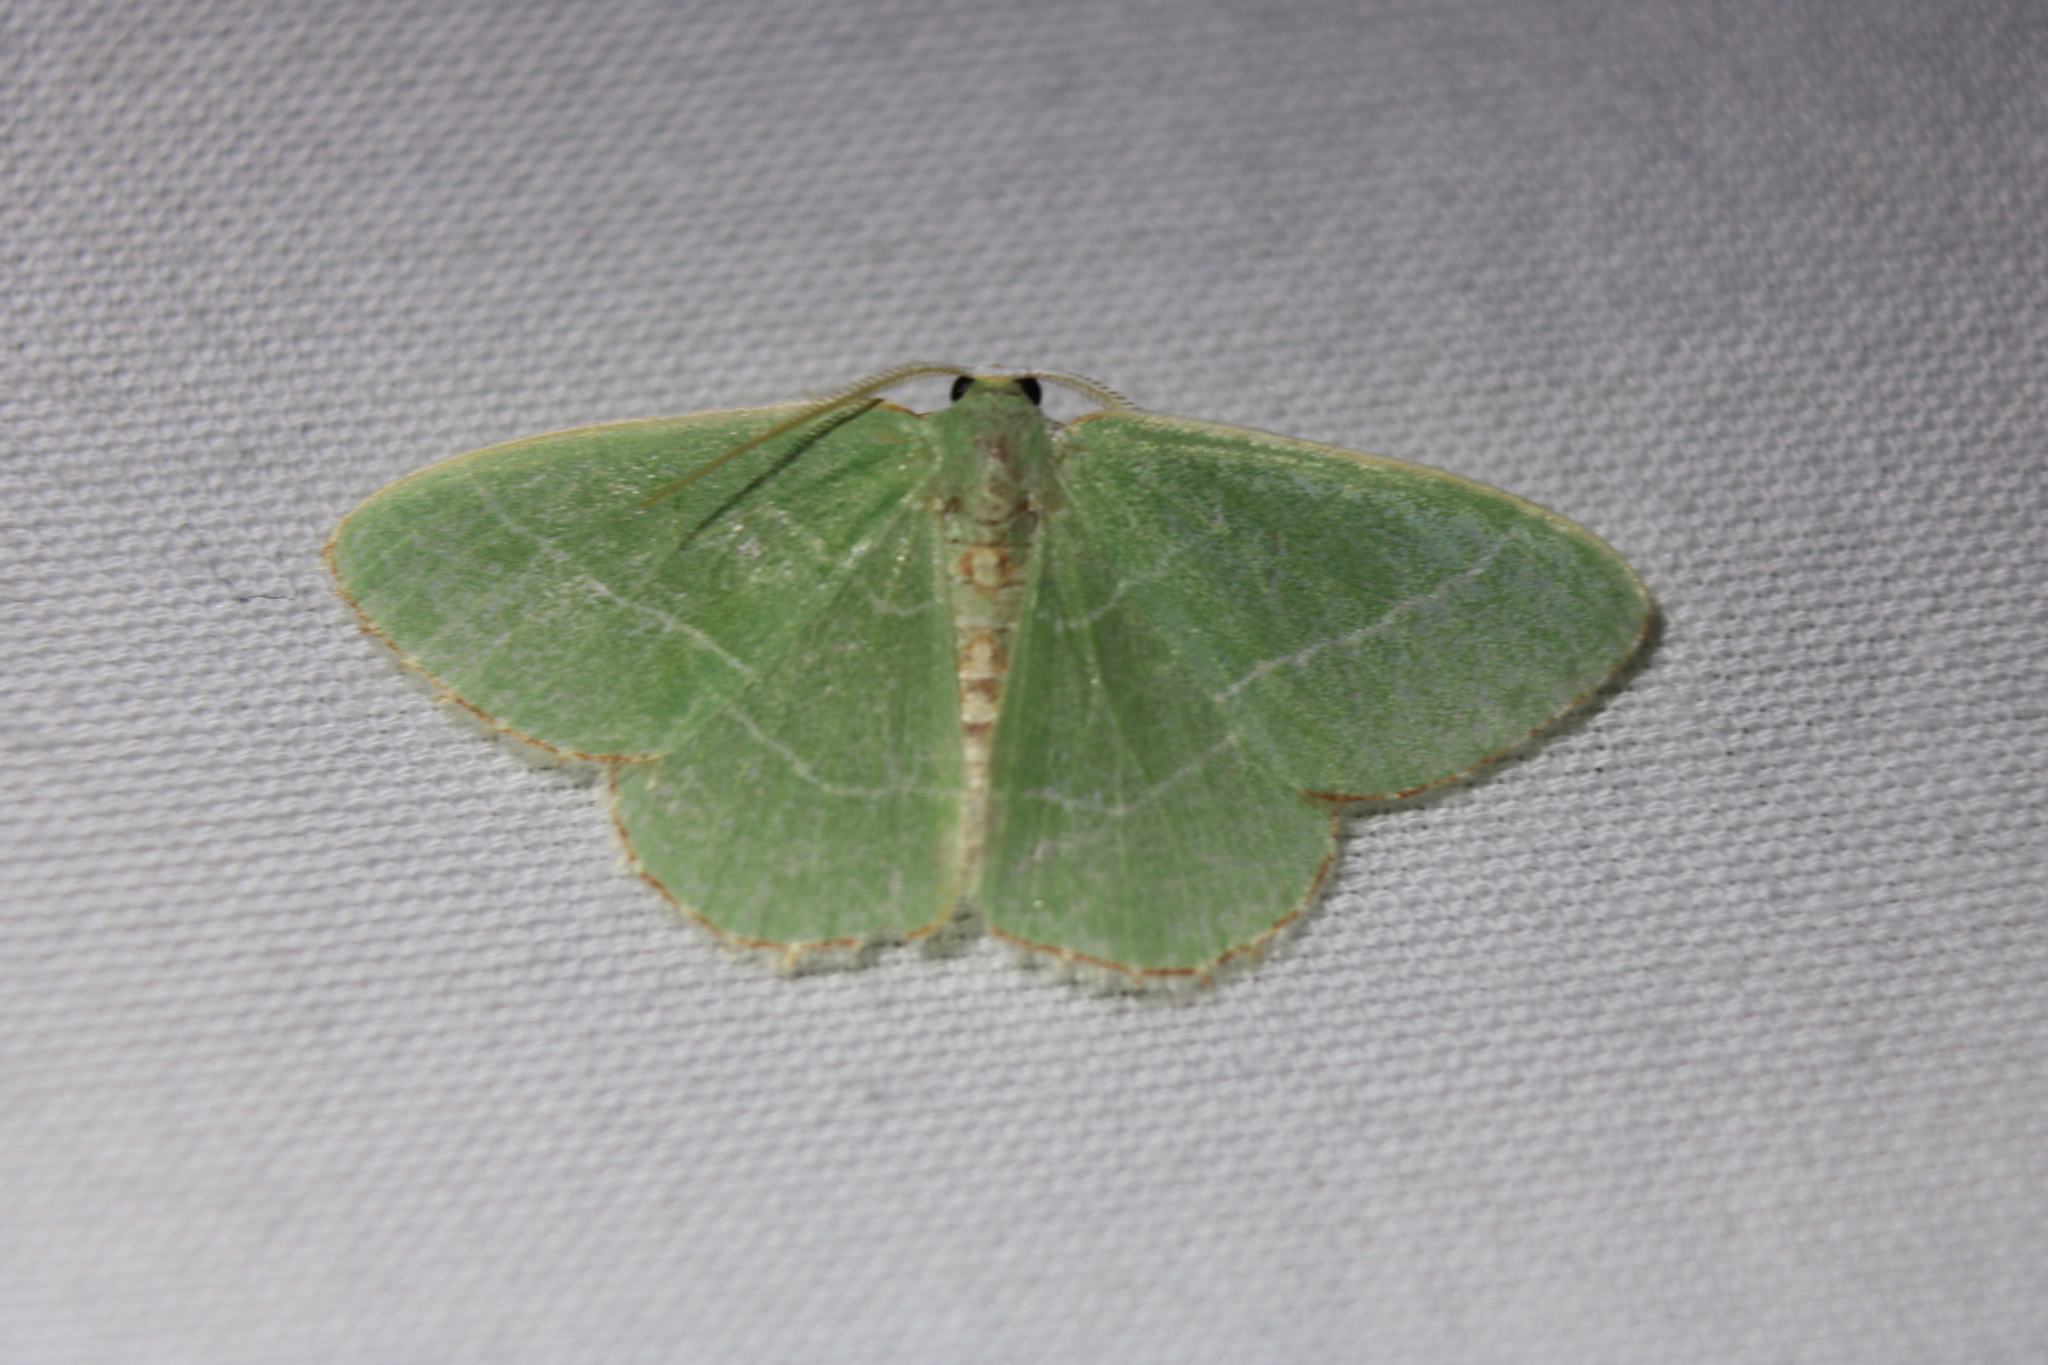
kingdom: Animalia
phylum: Arthropoda
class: Insecta
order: Lepidoptera
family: Geometridae
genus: Nemoria
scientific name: Nemoria bistriaria
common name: Red-fringed emerald
